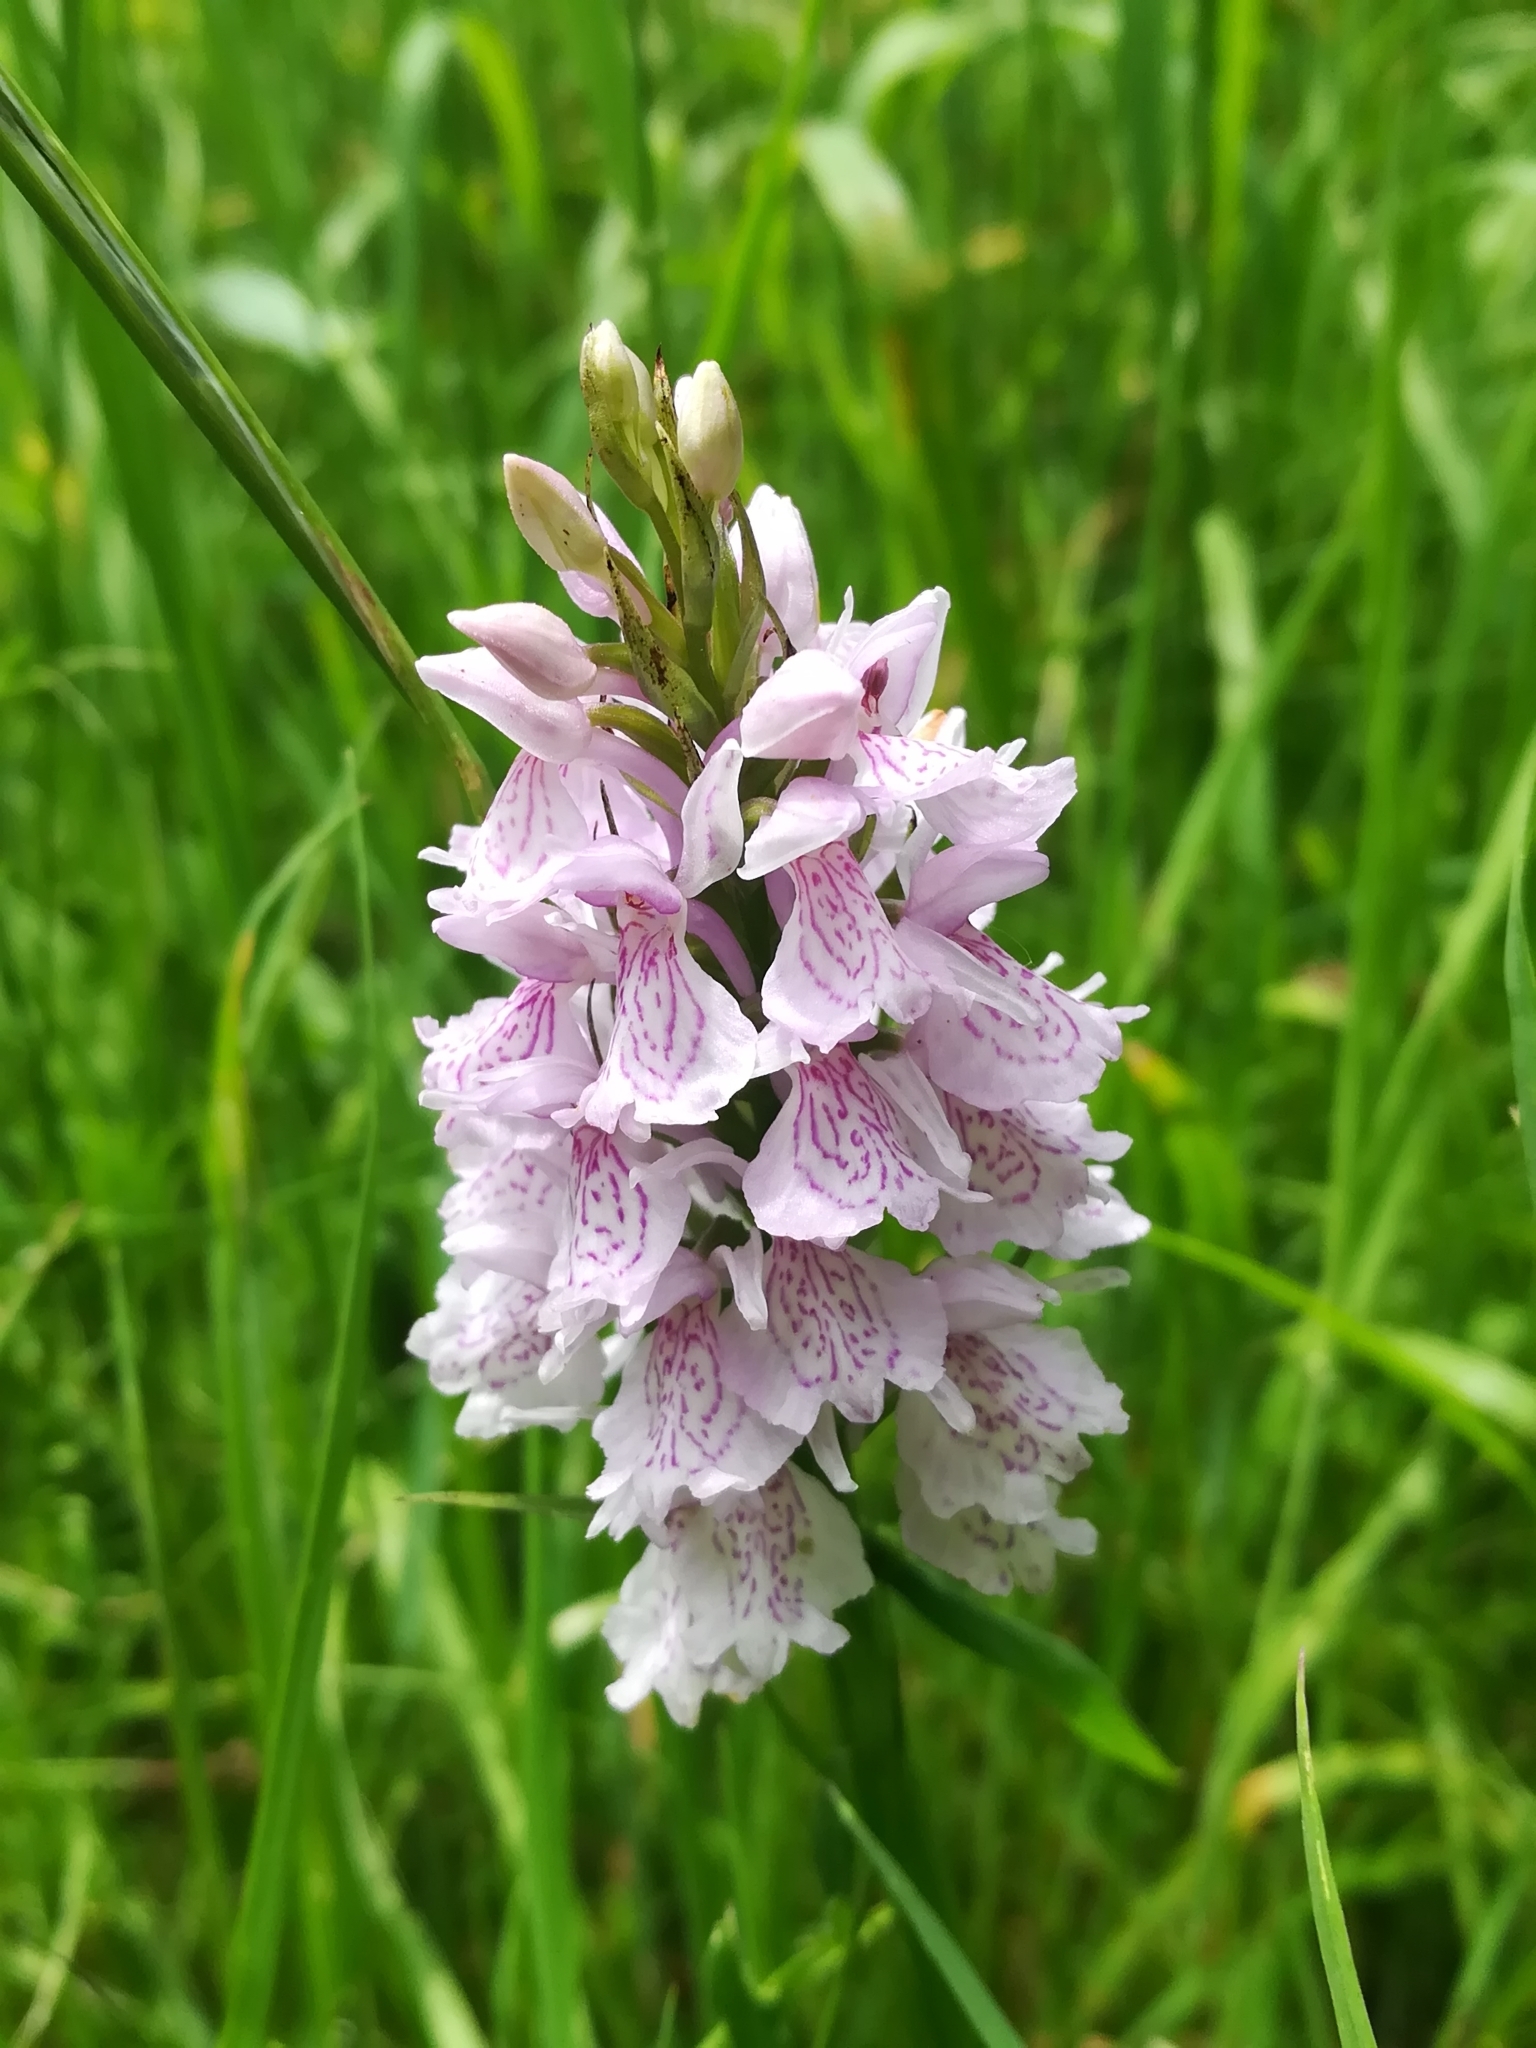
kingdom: Plantae
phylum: Tracheophyta
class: Liliopsida
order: Asparagales
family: Orchidaceae
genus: Dactylorhiza
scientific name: Dactylorhiza maculata
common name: Heath spotted-orchid
